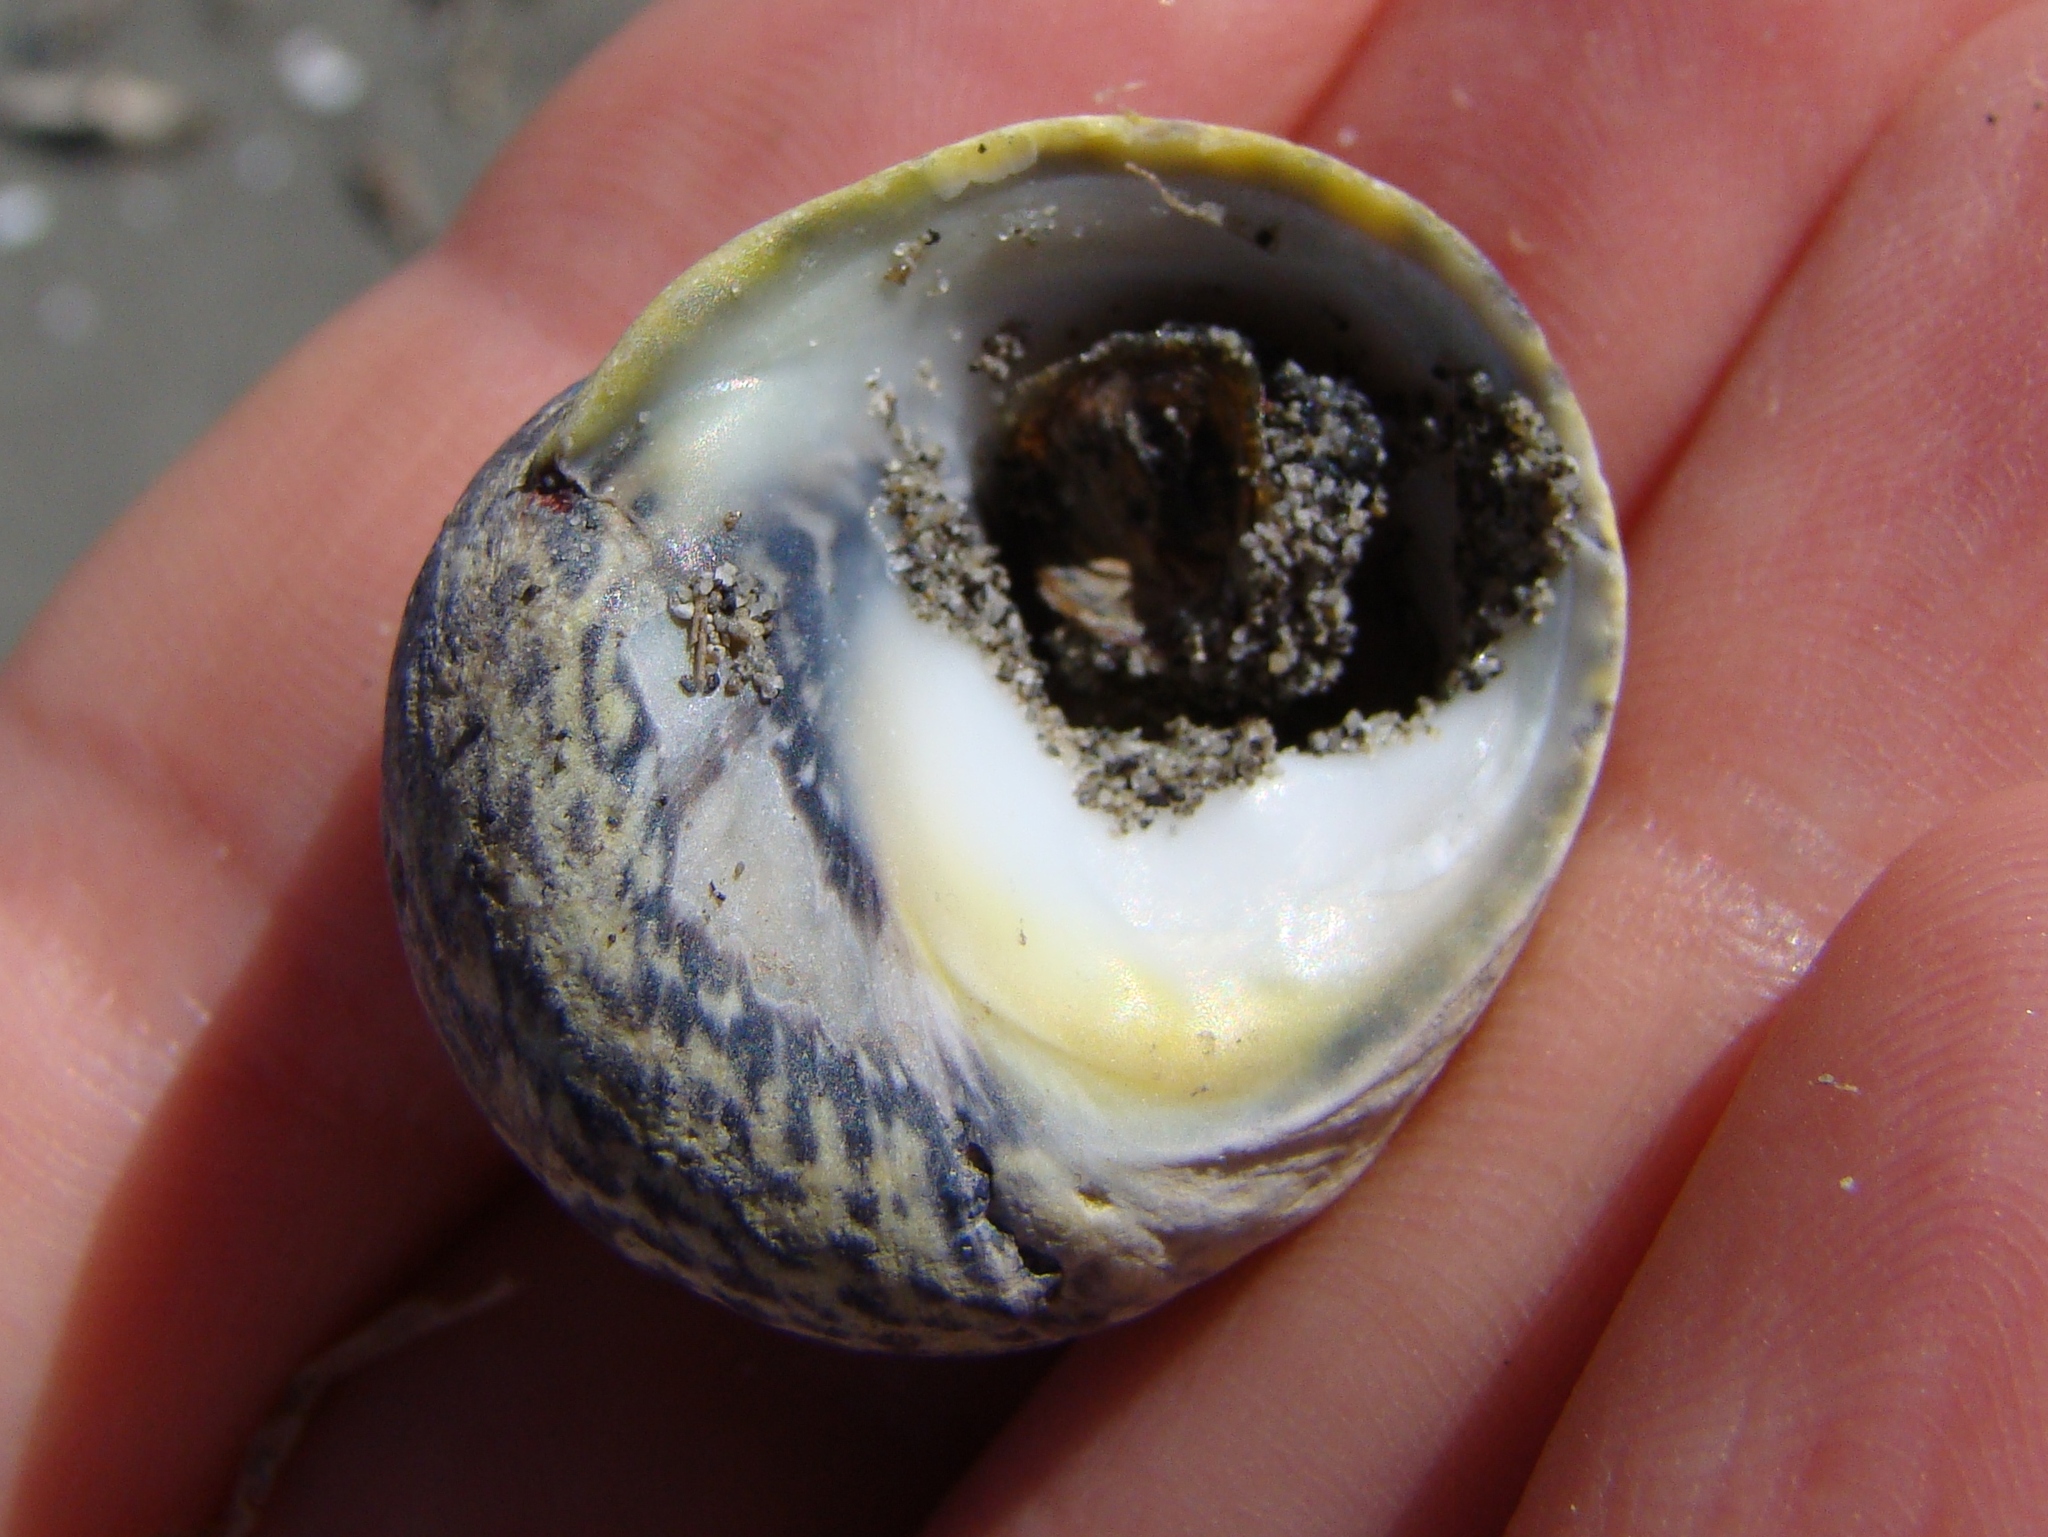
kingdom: Animalia
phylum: Mollusca
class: Gastropoda
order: Trochida
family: Trochidae
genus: Diloma
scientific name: Diloma subrostratum
